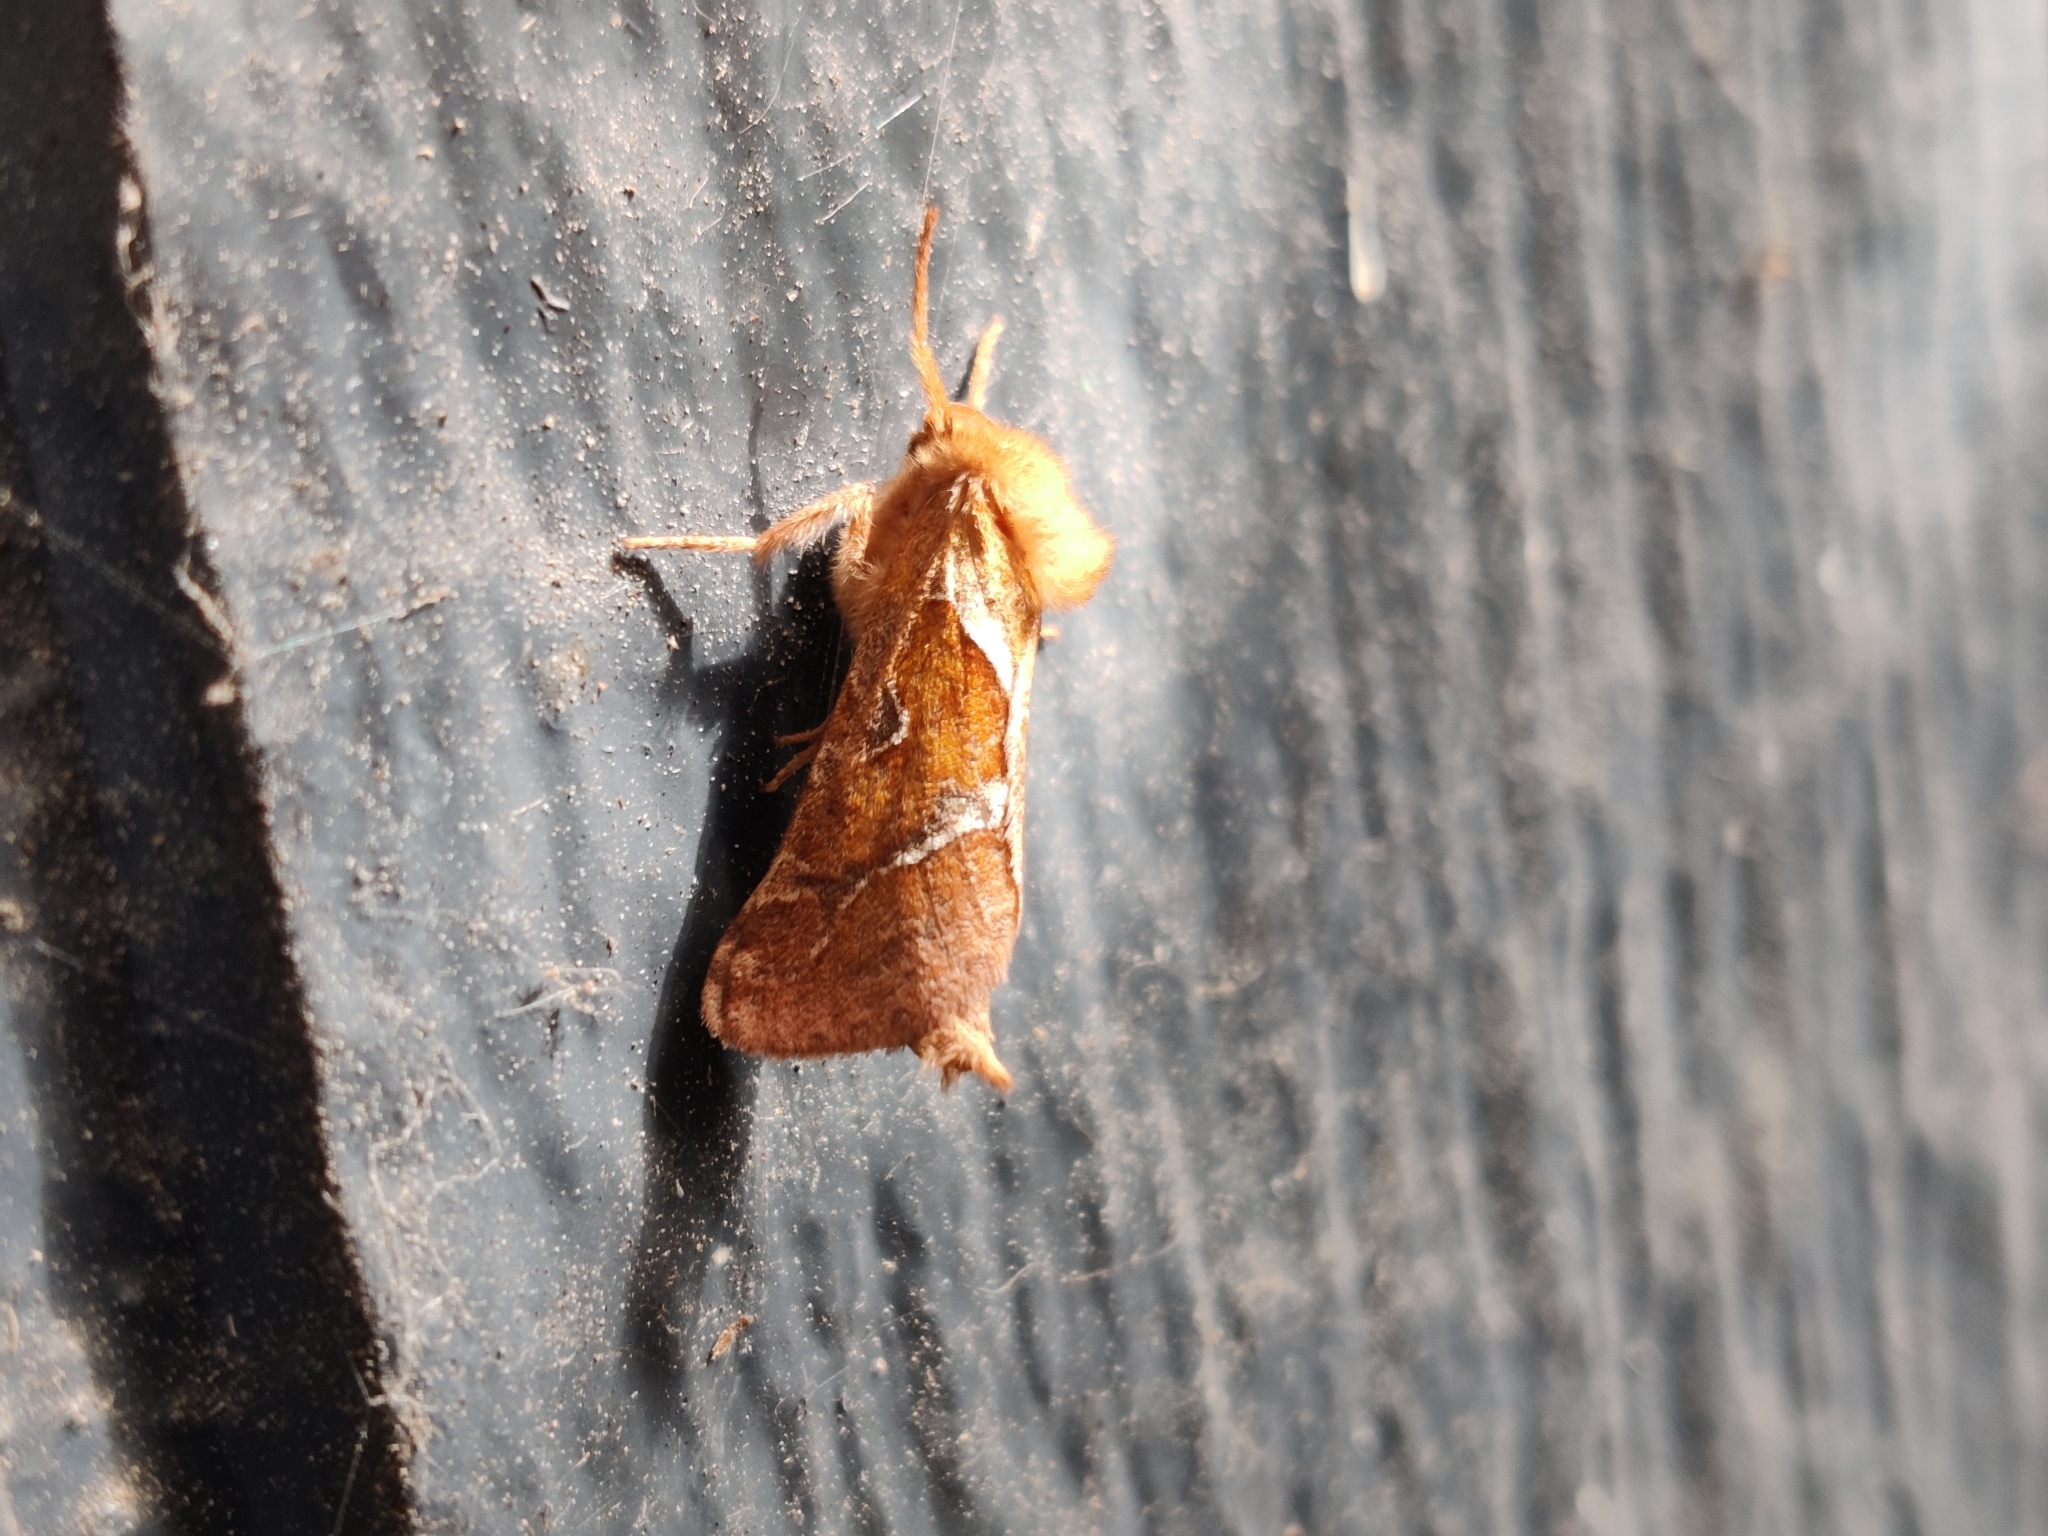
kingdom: Animalia
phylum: Arthropoda
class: Insecta
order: Lepidoptera
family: Hepialidae
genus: Triodia
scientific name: Triodia sylvina
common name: Orange swift
